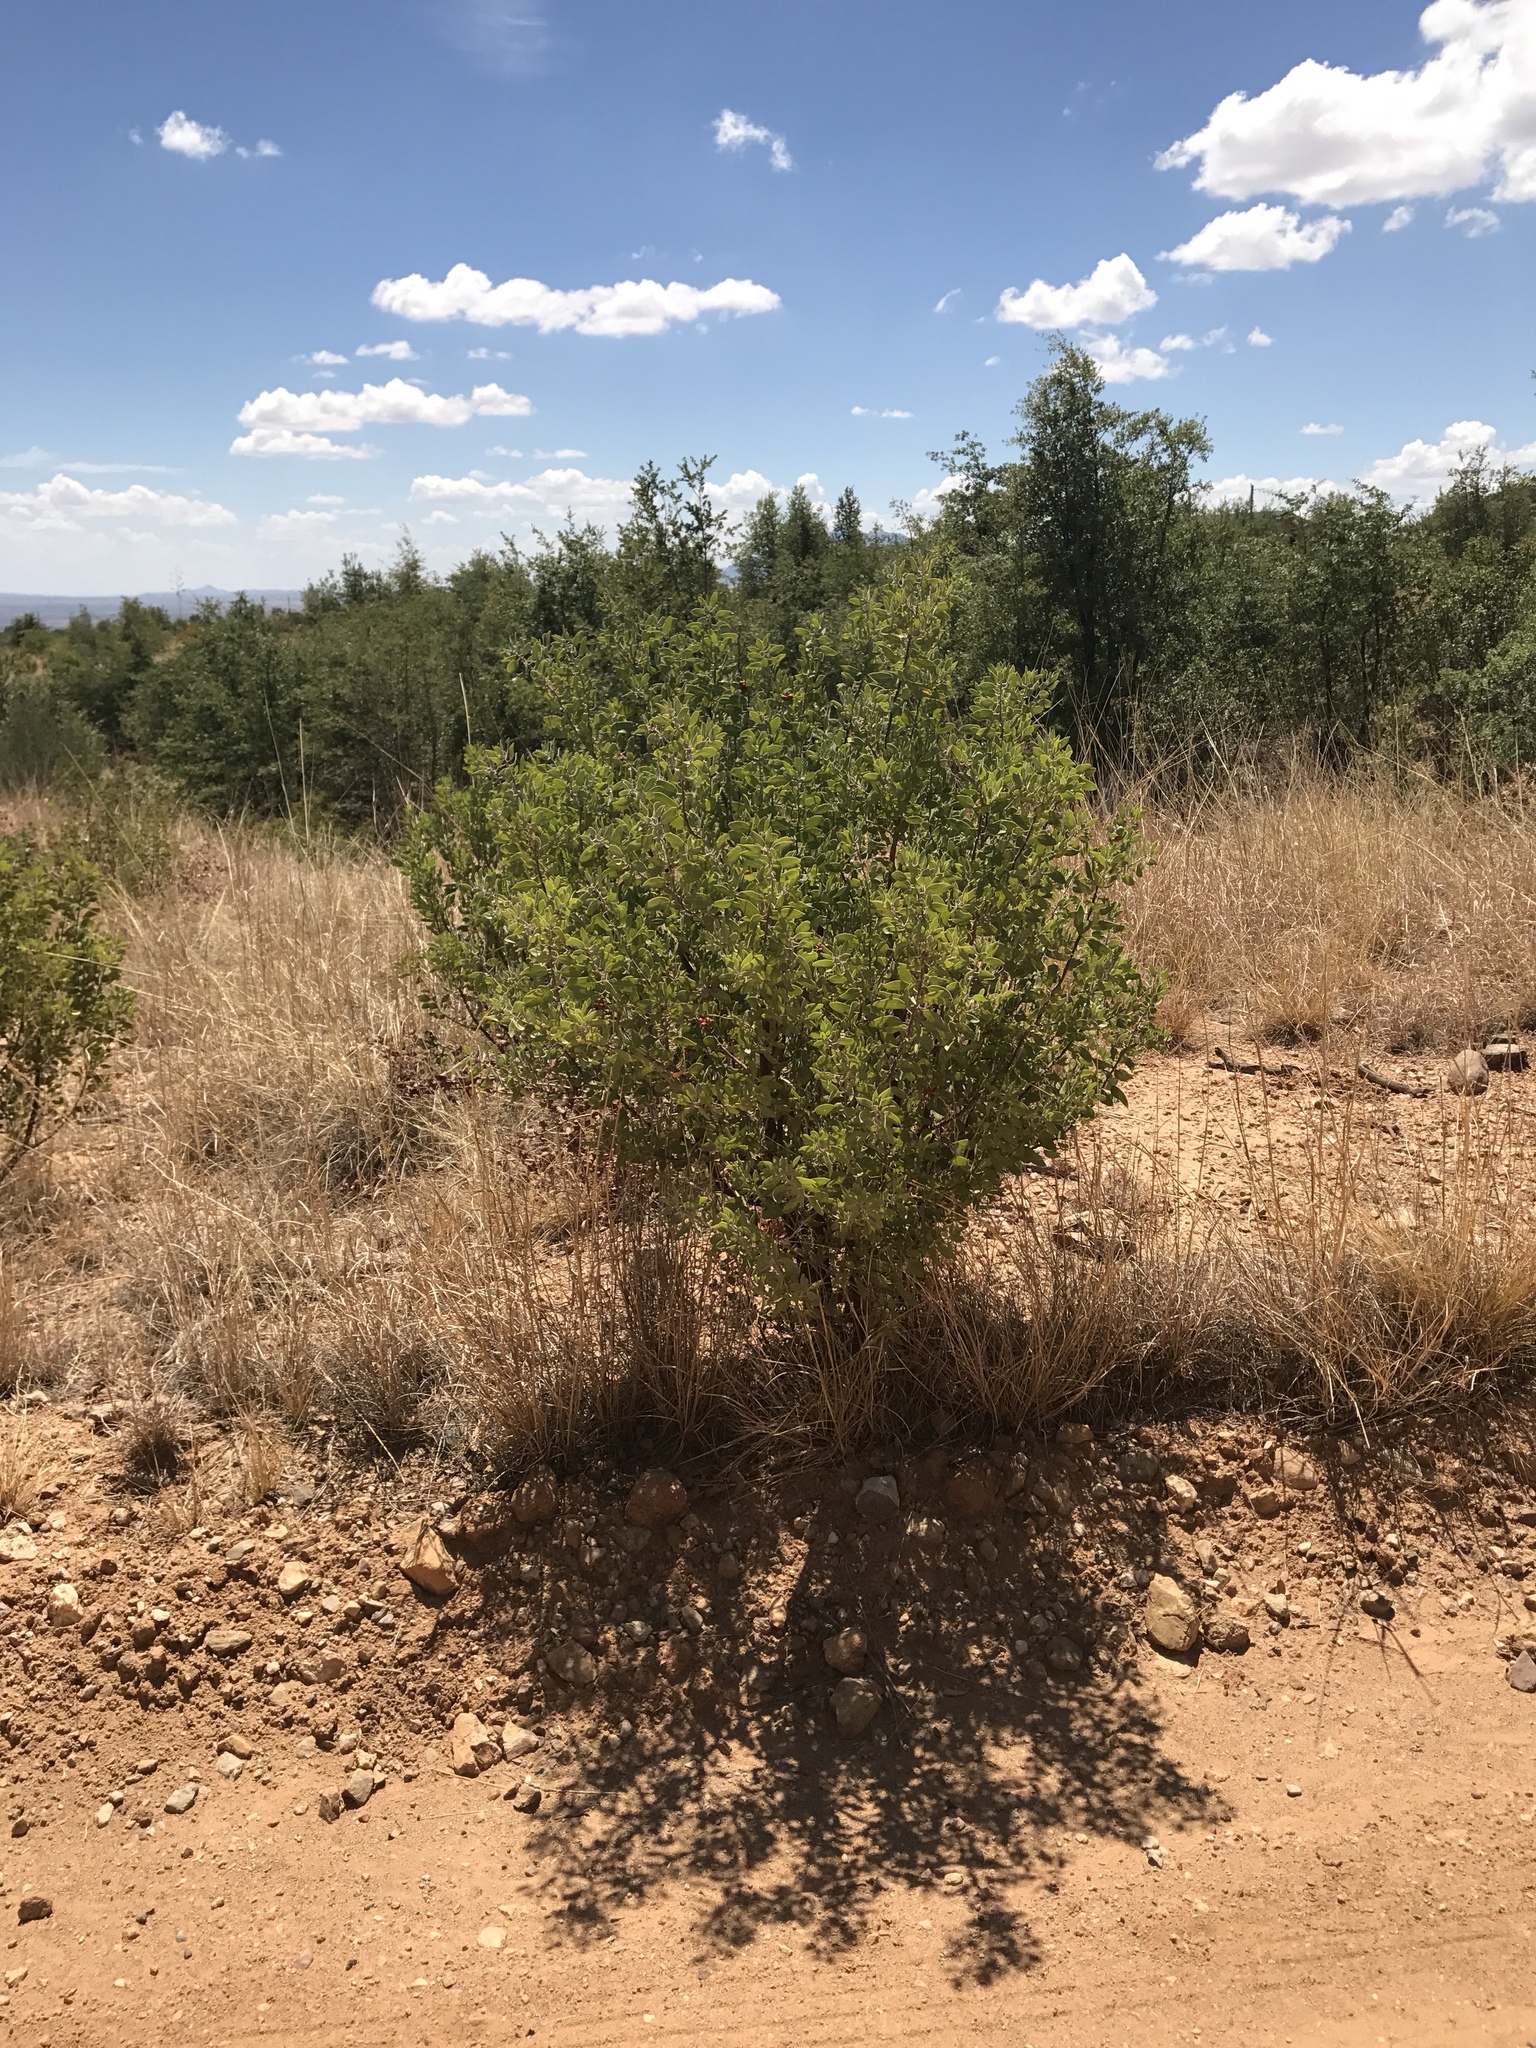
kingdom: Plantae
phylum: Tracheophyta
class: Magnoliopsida
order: Ericales
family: Ericaceae
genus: Arctostaphylos
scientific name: Arctostaphylos pungens
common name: Mexican manzanita
